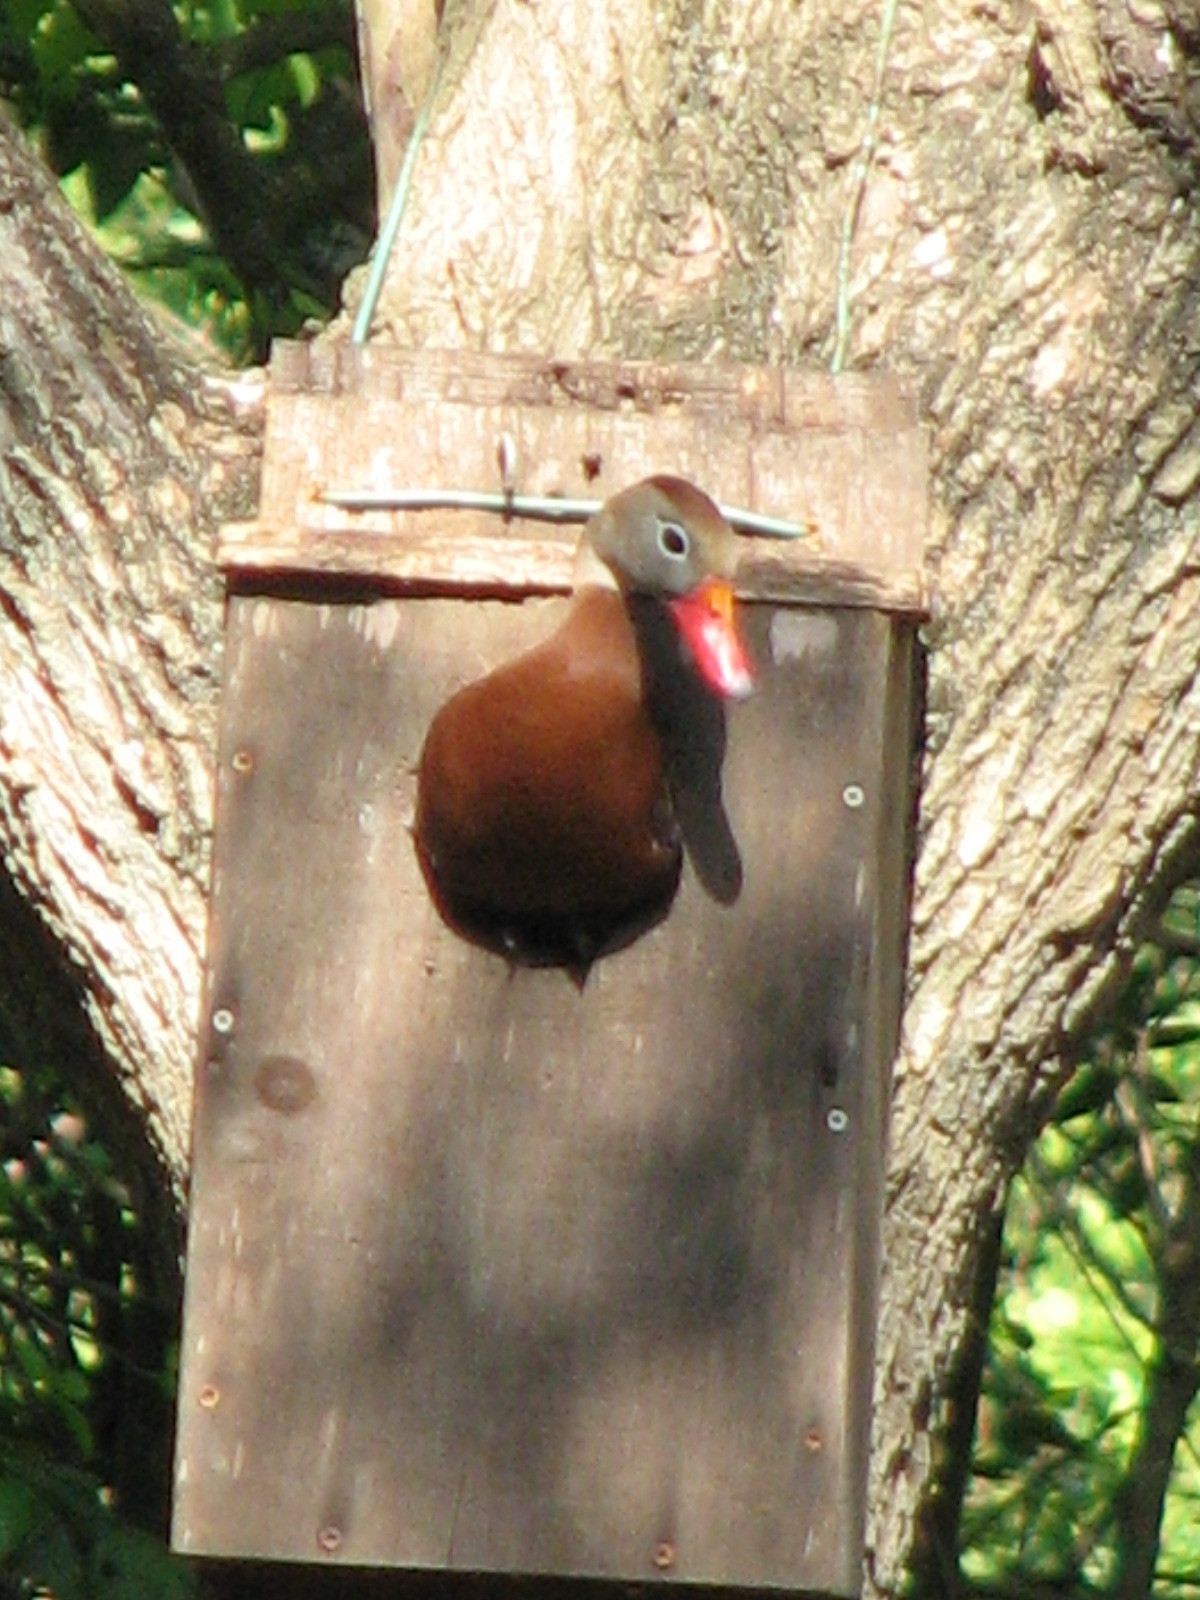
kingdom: Animalia
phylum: Chordata
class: Aves
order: Anseriformes
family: Anatidae
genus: Dendrocygna
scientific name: Dendrocygna autumnalis
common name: Black-bellied whistling duck
